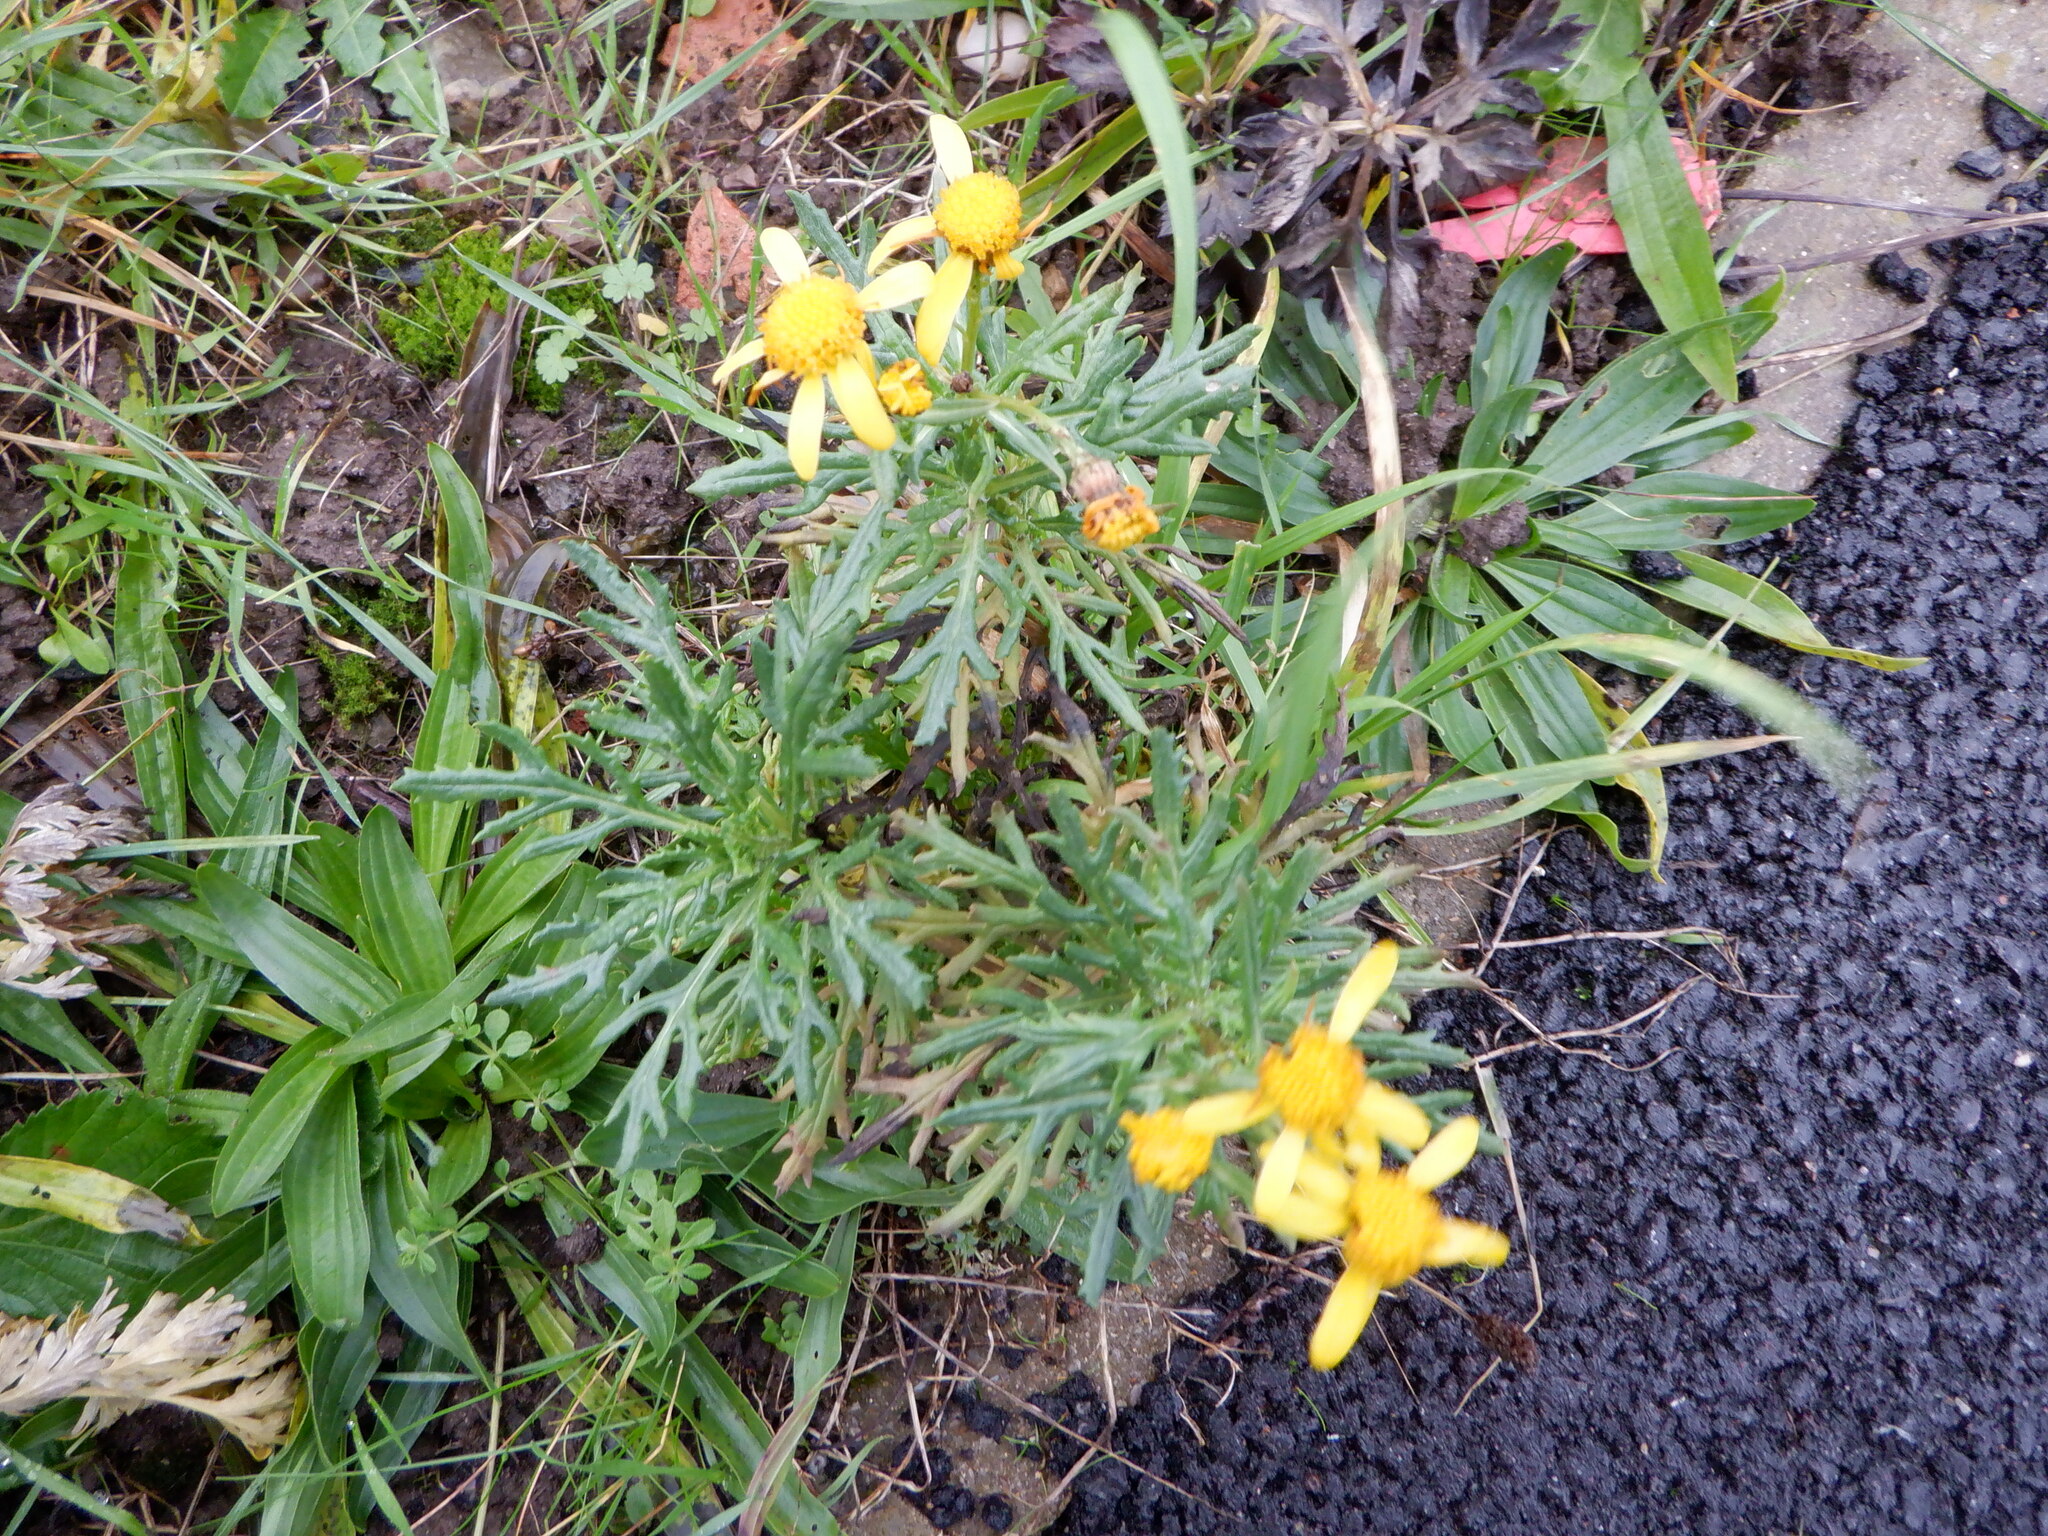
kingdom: Plantae
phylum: Tracheophyta
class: Magnoliopsida
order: Asterales
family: Asteraceae
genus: Senecio
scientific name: Senecio squalidus
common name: Oxford ragwort
